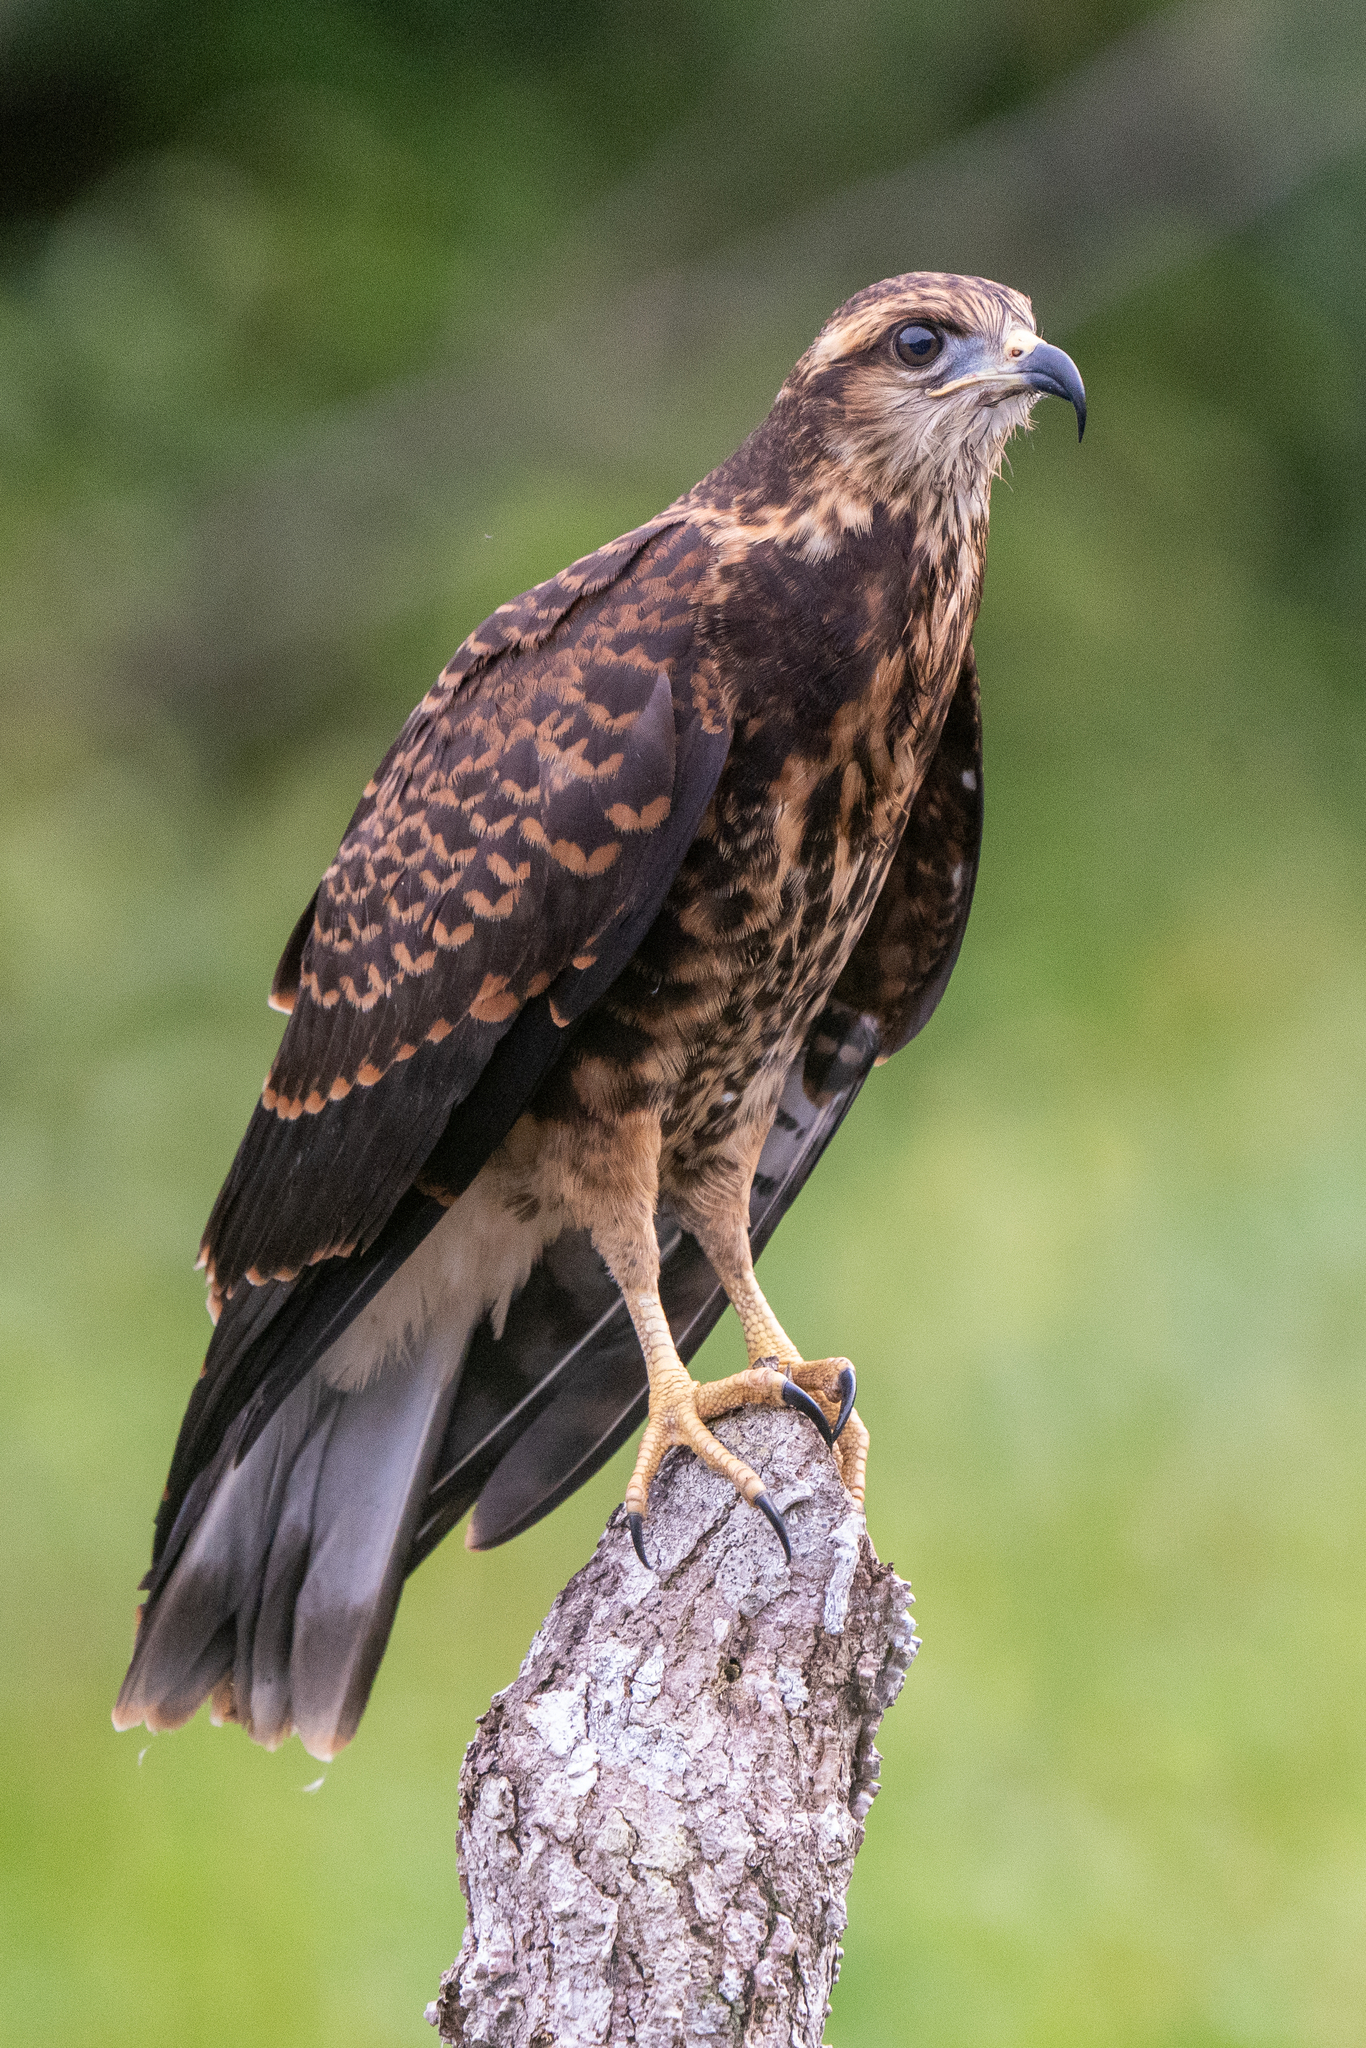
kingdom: Animalia
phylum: Chordata
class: Aves
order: Accipitriformes
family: Accipitridae
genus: Rostrhamus
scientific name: Rostrhamus sociabilis
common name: Snail kite
